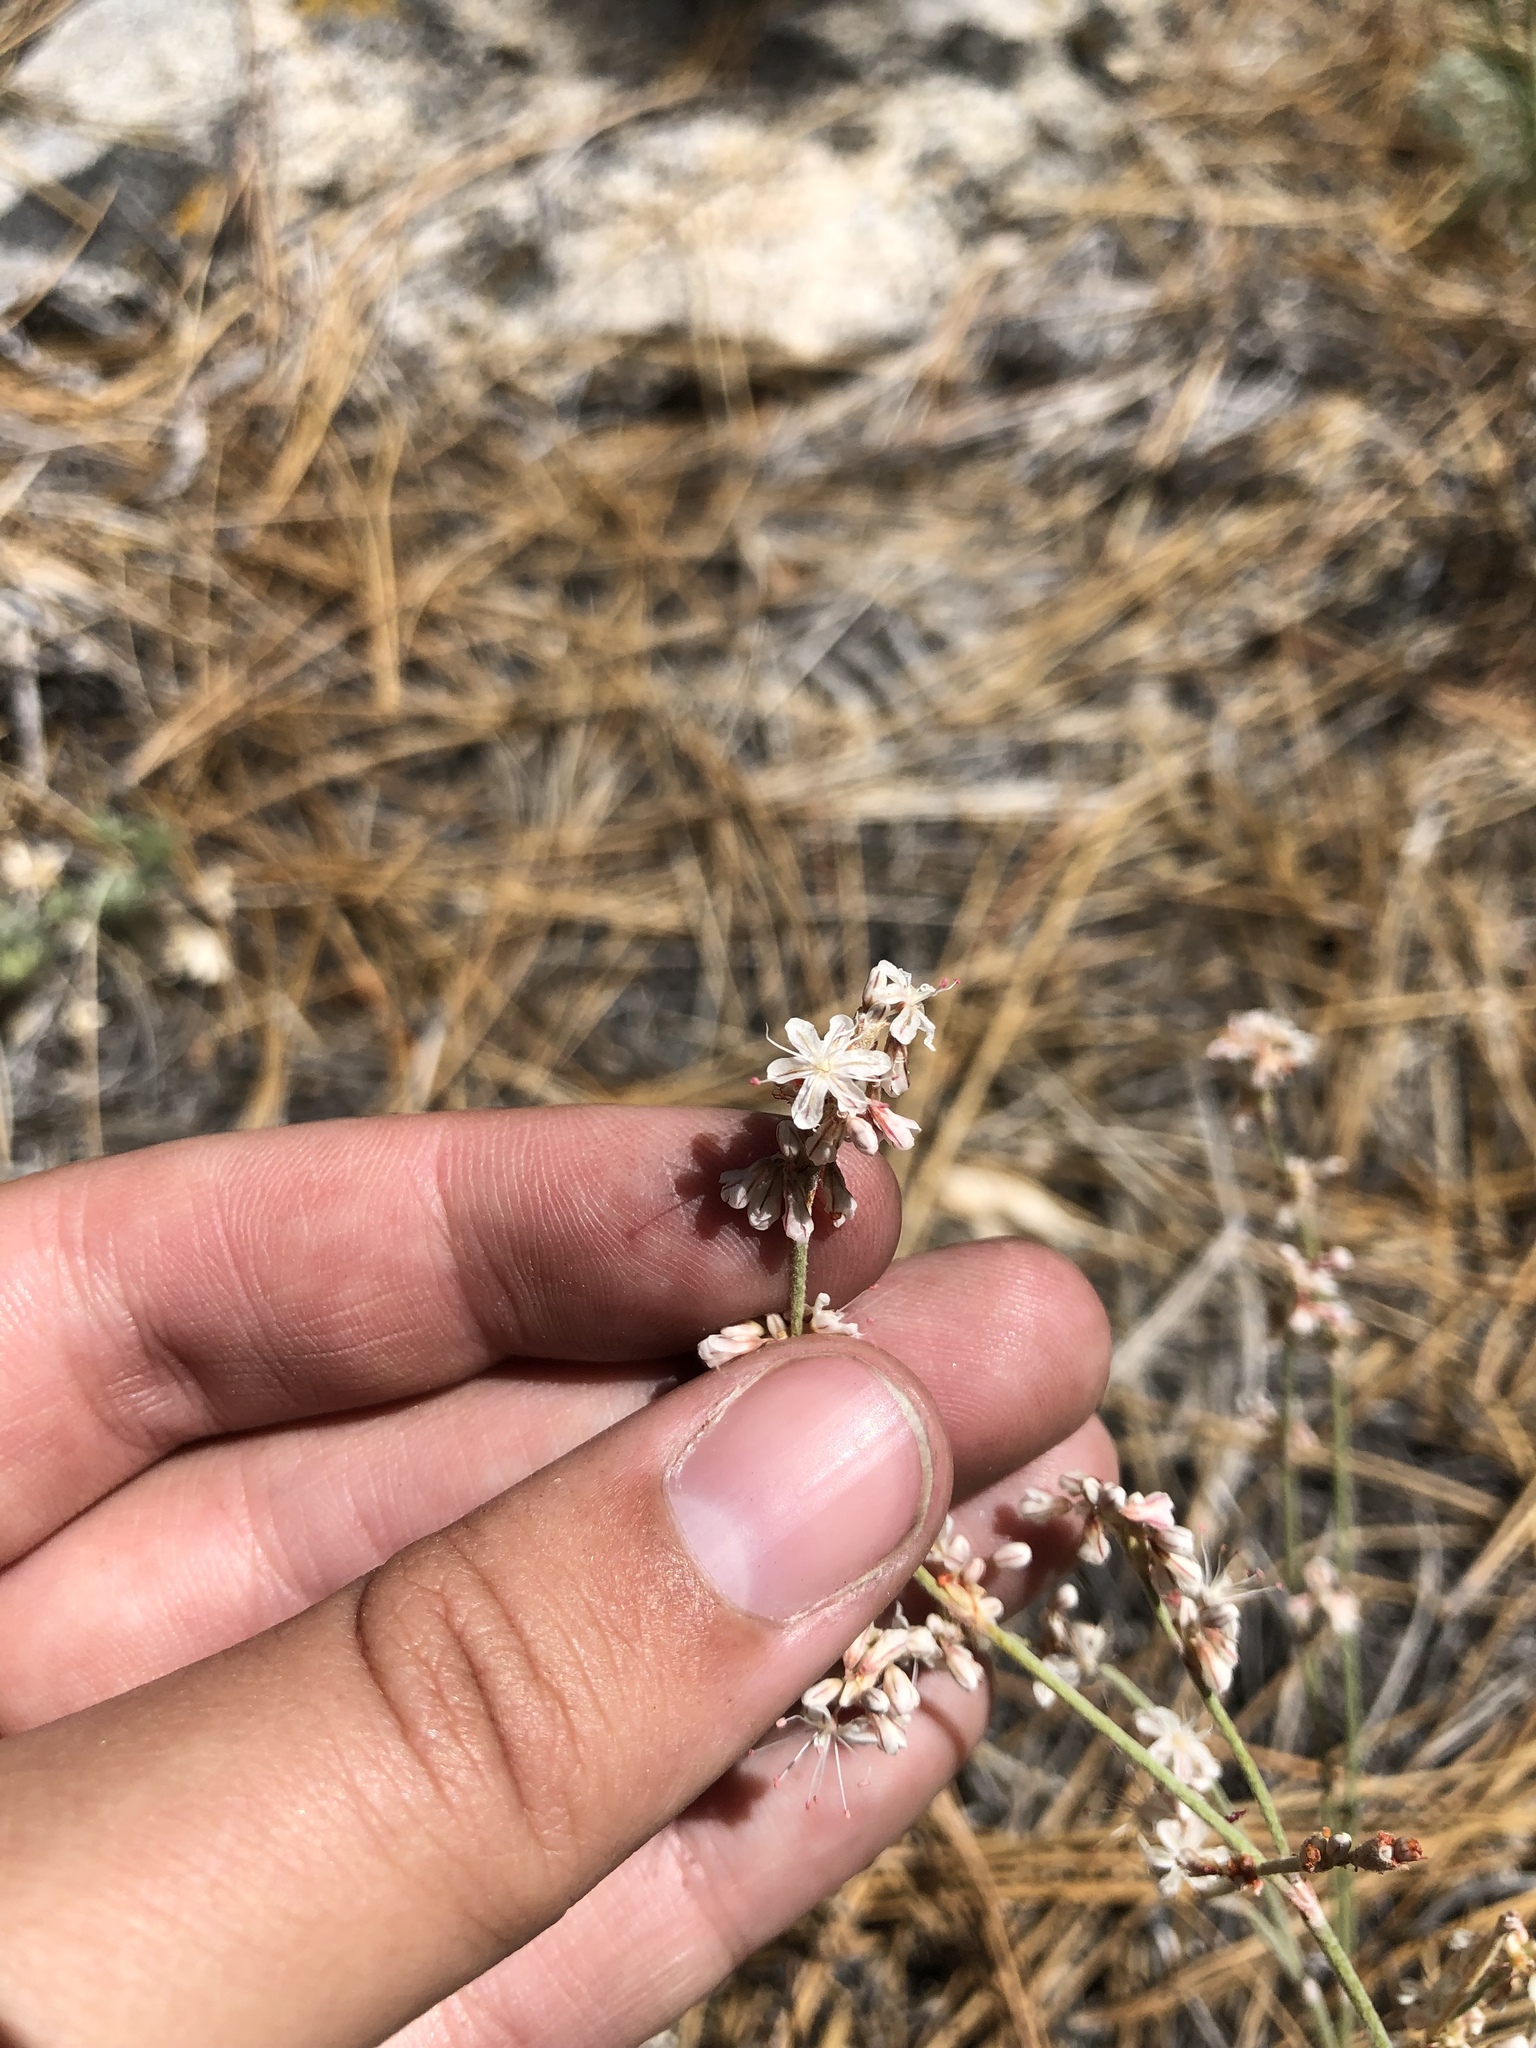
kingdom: Plantae
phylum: Tracheophyta
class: Magnoliopsida
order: Caryophyllales
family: Polygonaceae
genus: Eriogonum
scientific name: Eriogonum wrightii
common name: Bastard-sage
